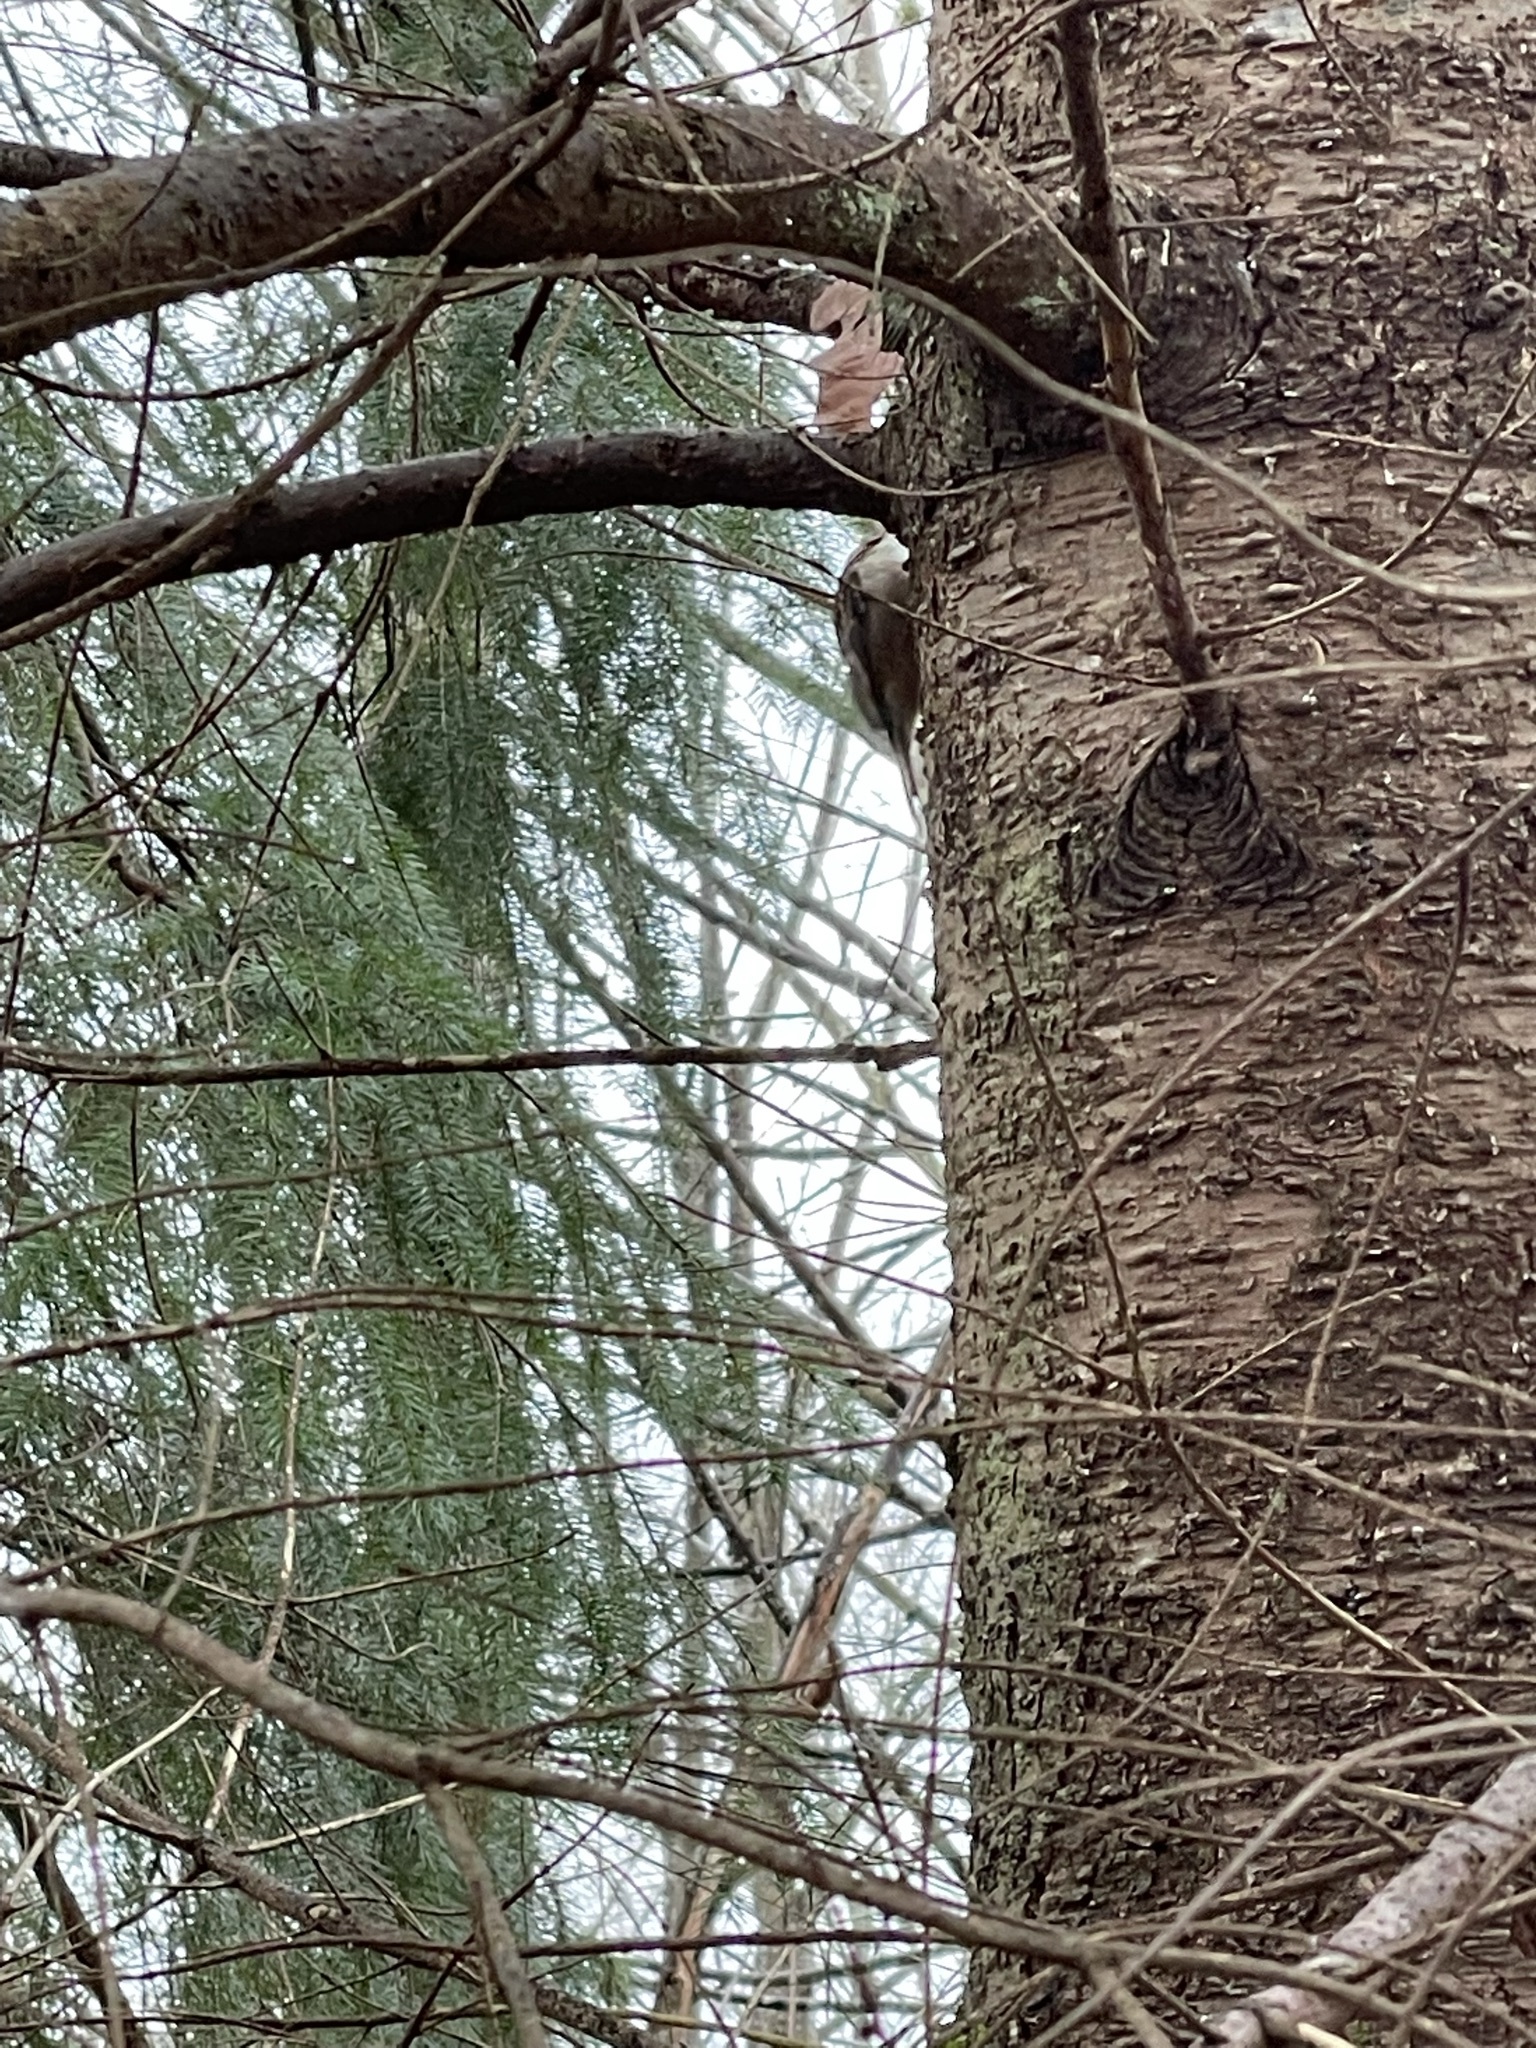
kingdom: Animalia
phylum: Chordata
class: Aves
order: Passeriformes
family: Certhiidae
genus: Certhia
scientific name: Certhia americana
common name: Brown creeper
